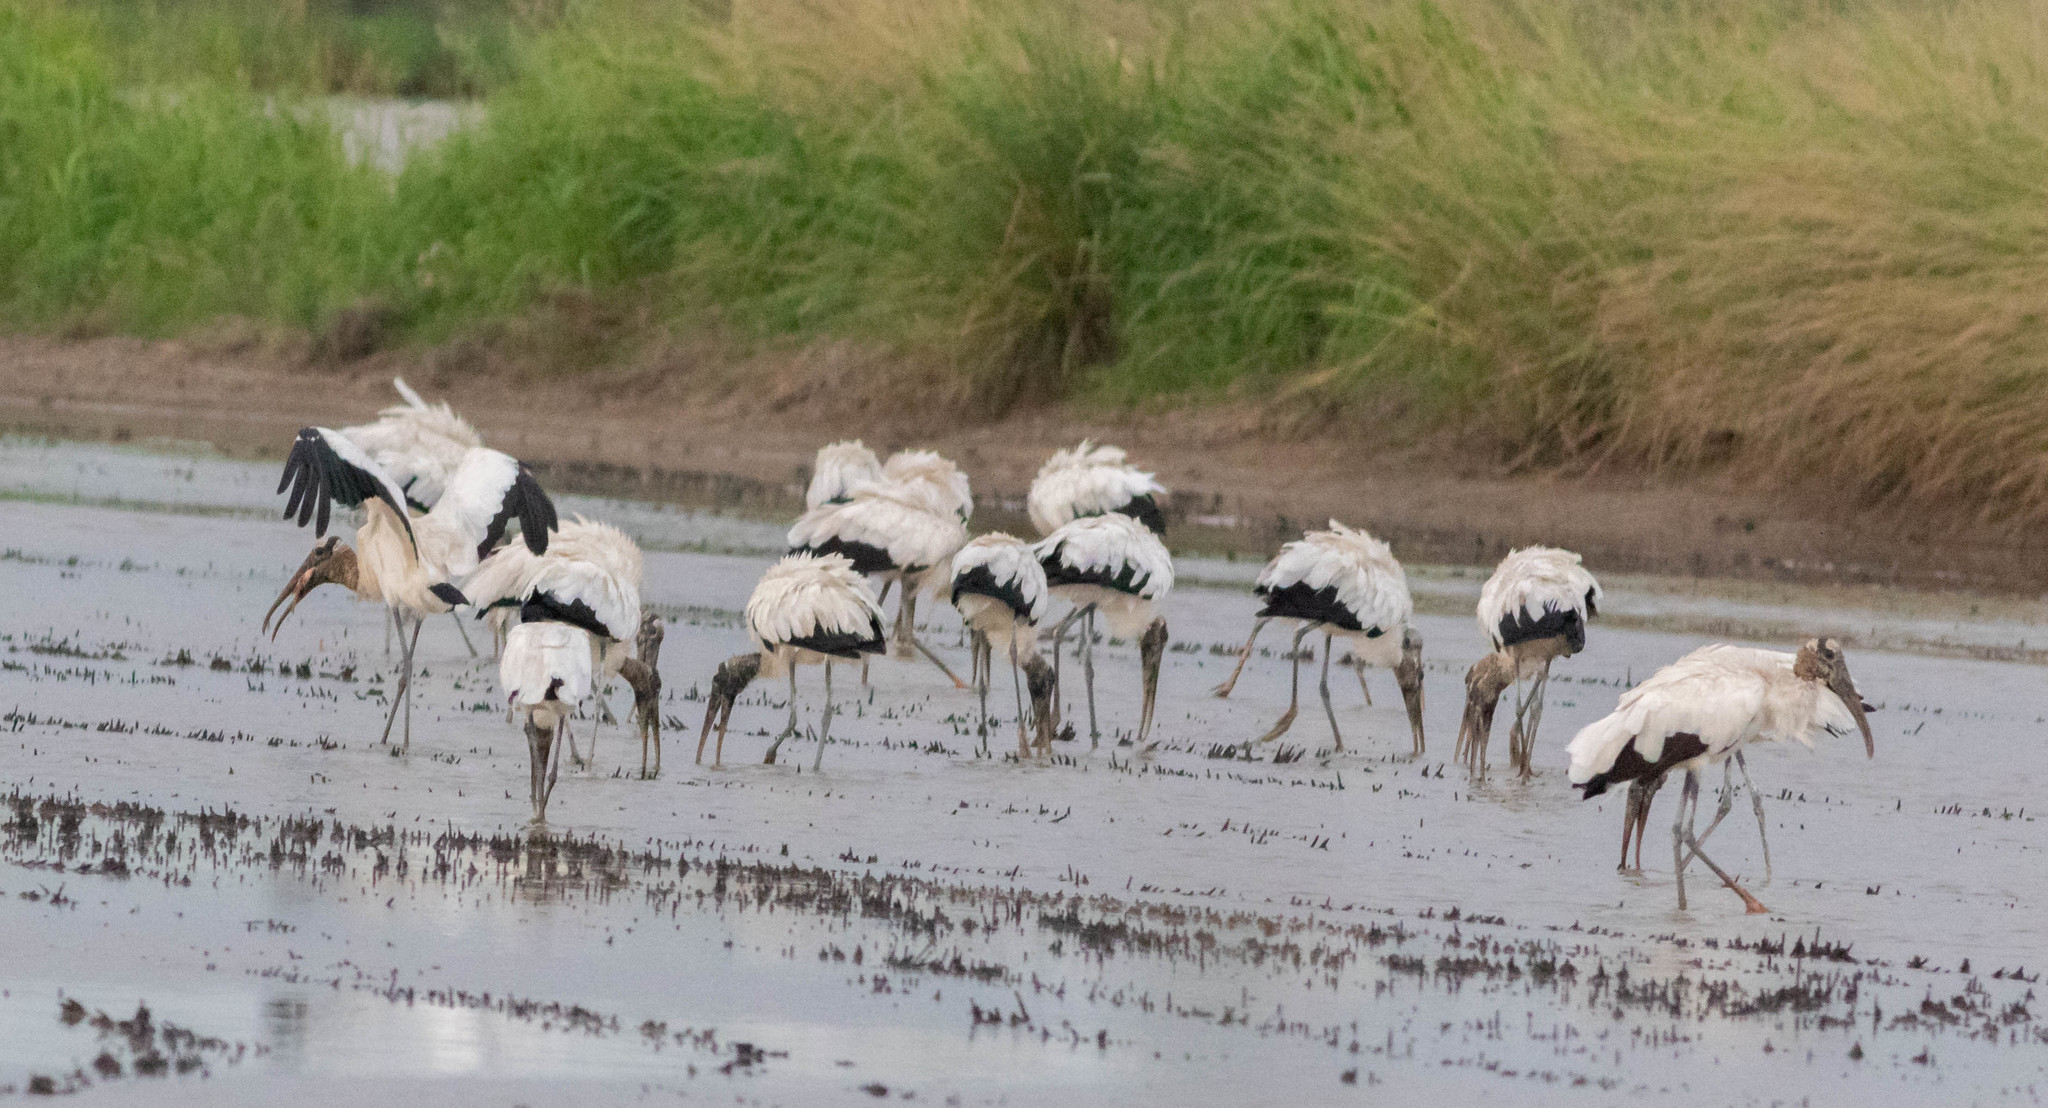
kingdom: Animalia
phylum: Chordata
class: Aves
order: Ciconiiformes
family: Ciconiidae
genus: Mycteria
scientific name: Mycteria americana
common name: Wood stork
